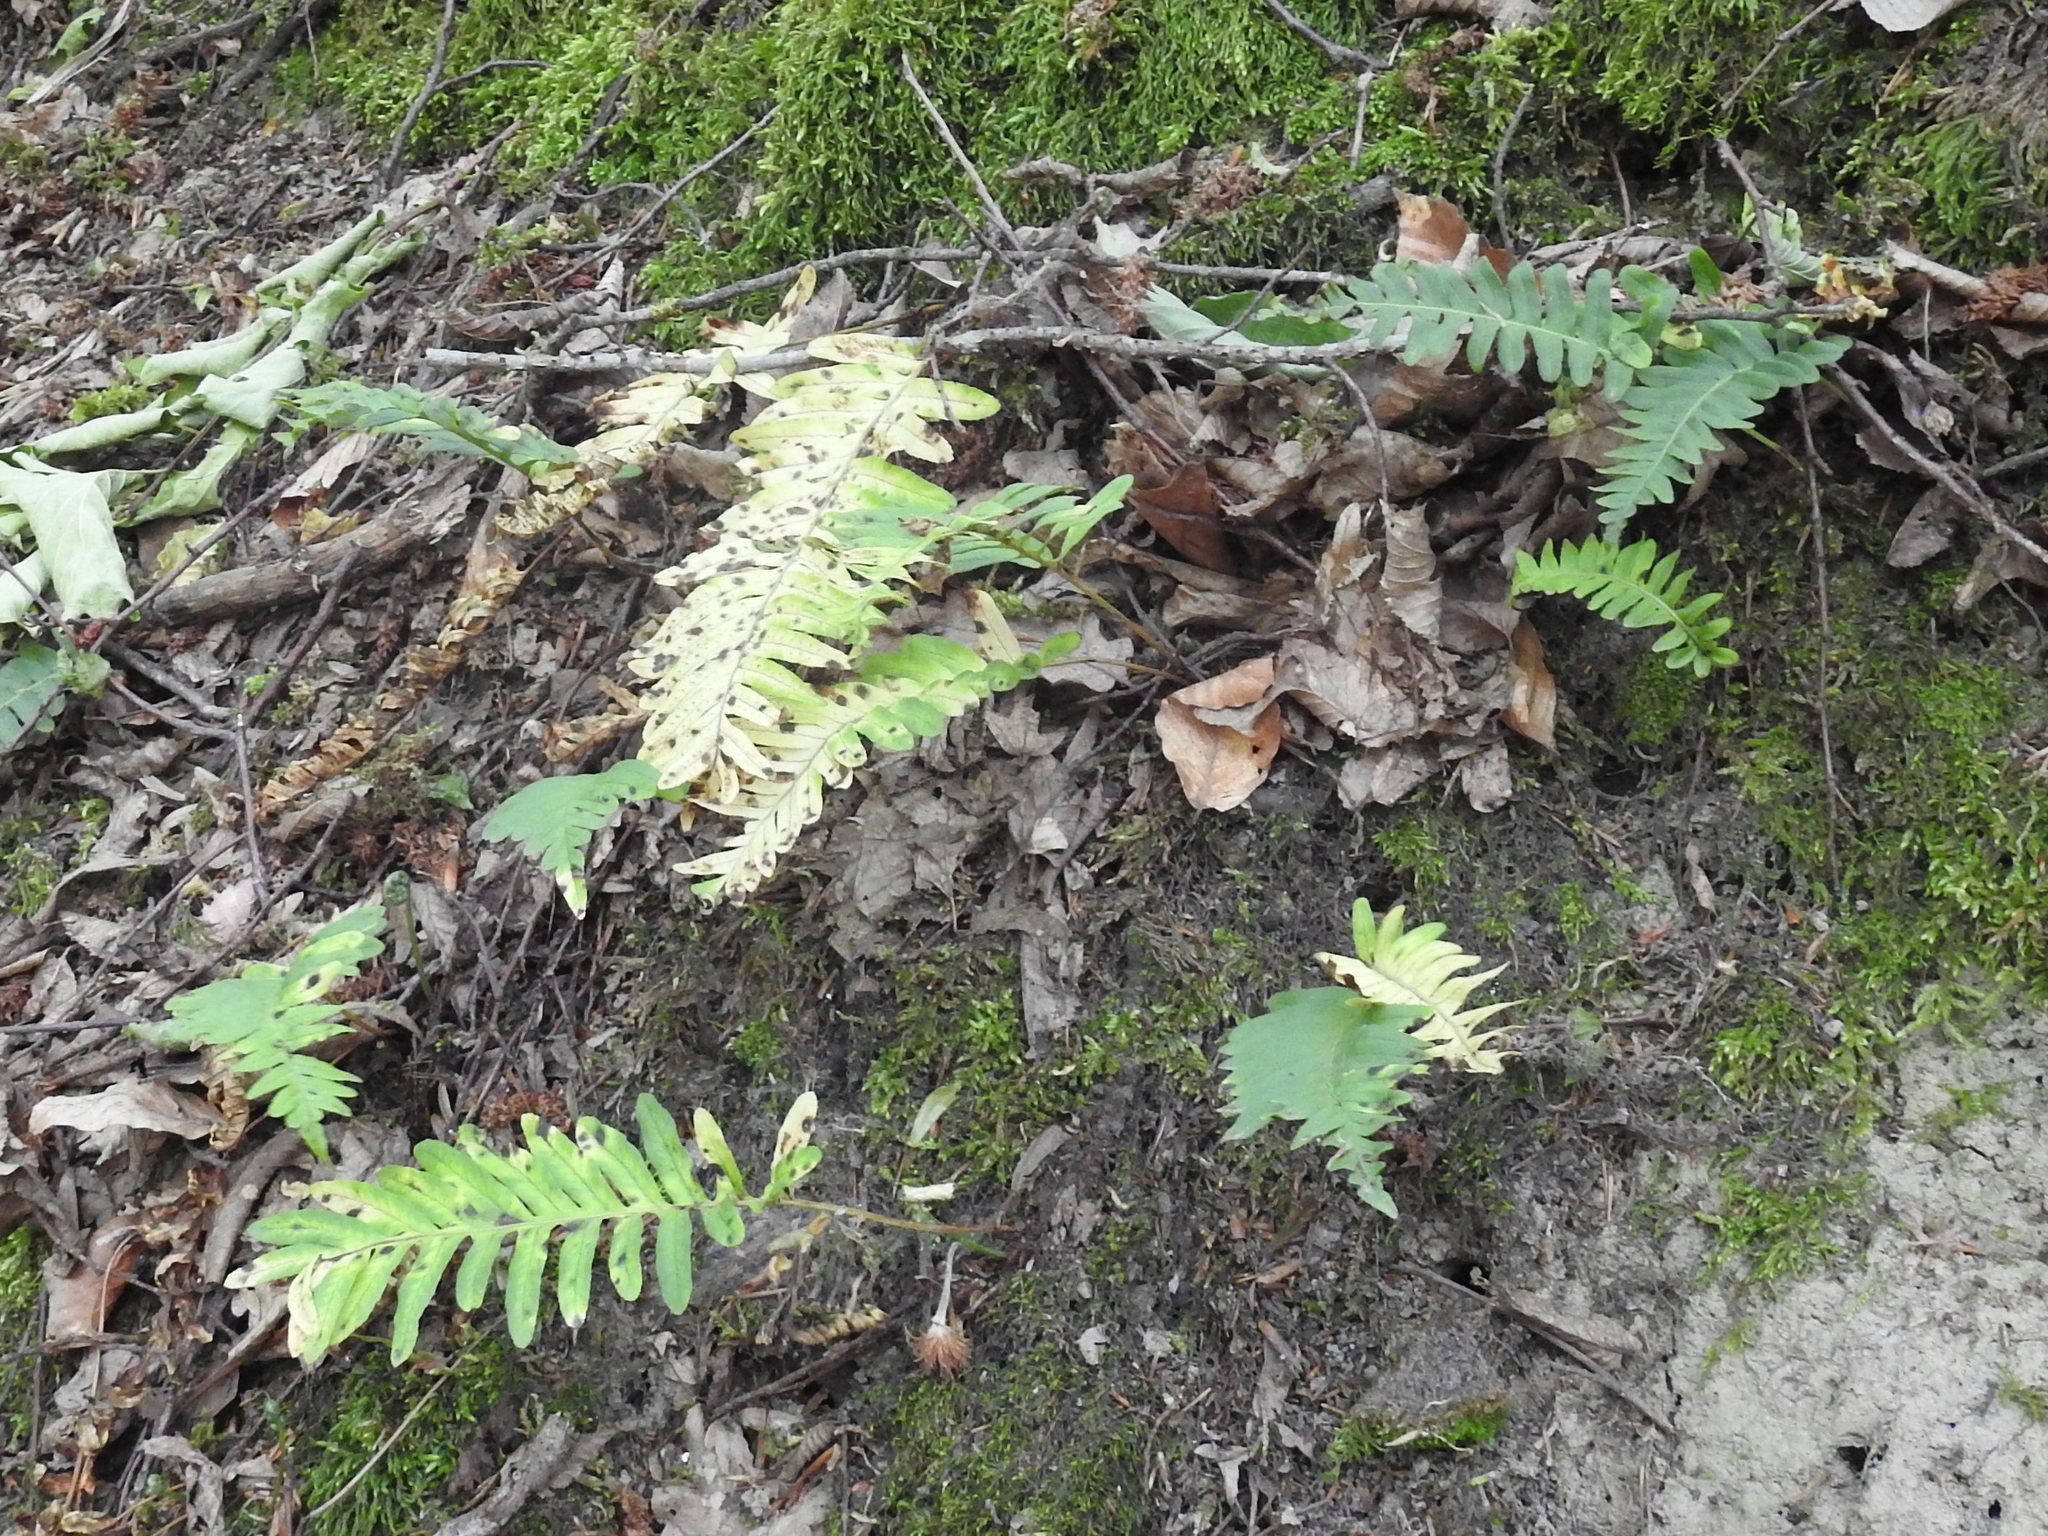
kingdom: Plantae
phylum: Tracheophyta
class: Polypodiopsida
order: Polypodiales
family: Polypodiaceae
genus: Polypodium
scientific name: Polypodium vulgare
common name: Common polypody
